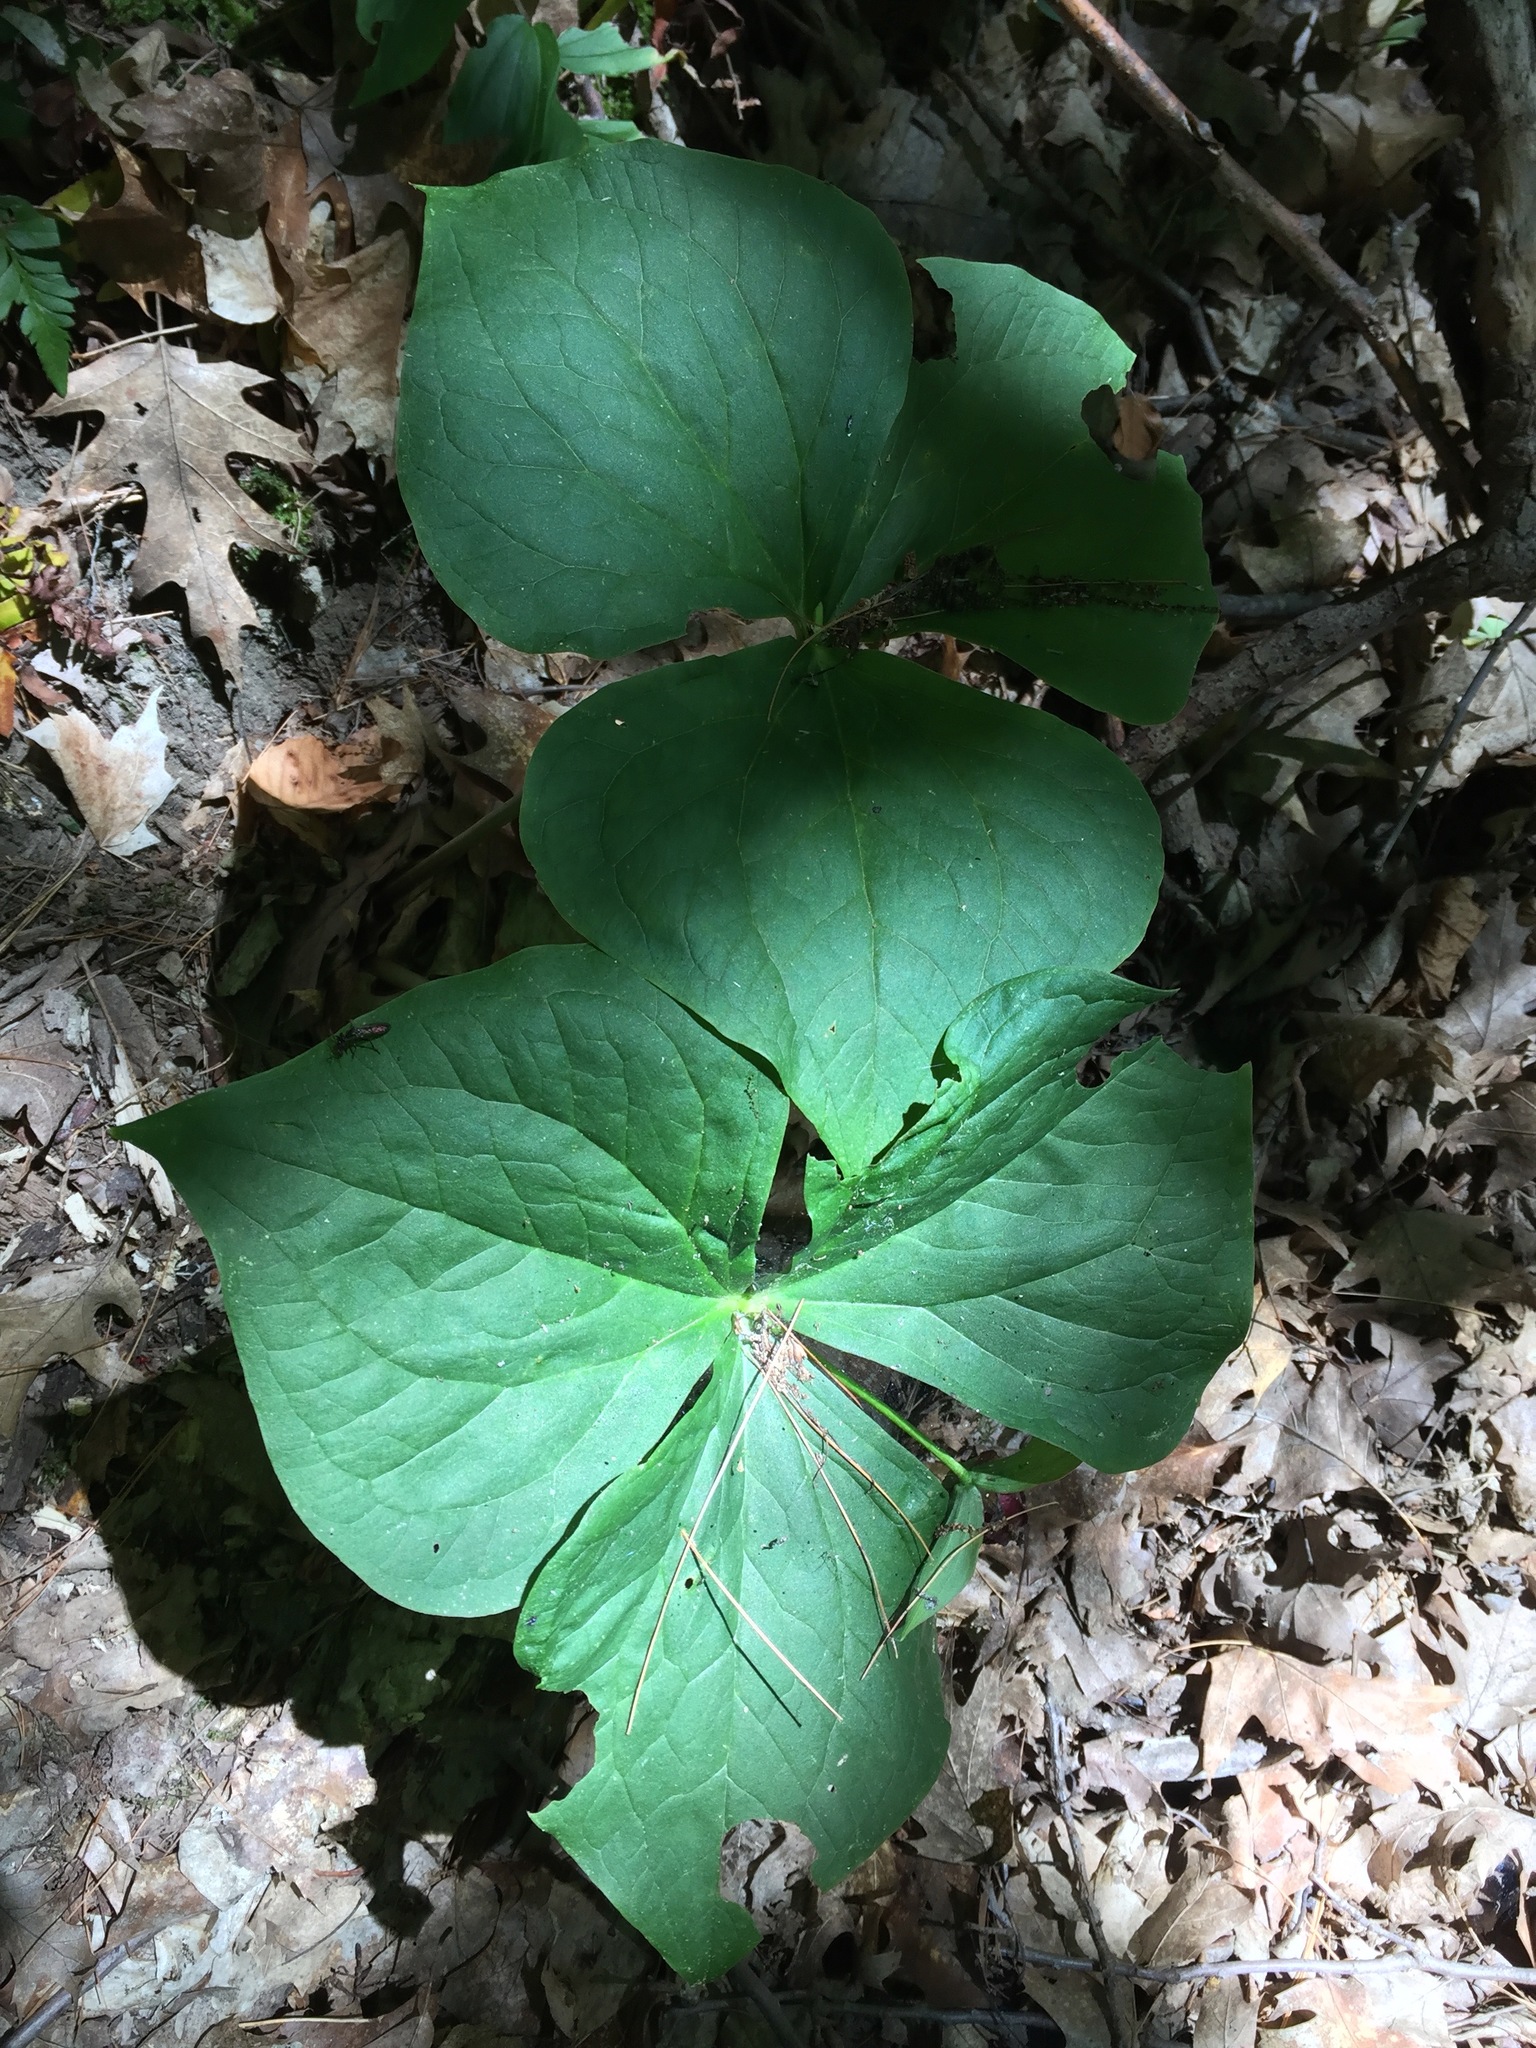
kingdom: Plantae
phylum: Tracheophyta
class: Liliopsida
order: Liliales
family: Melanthiaceae
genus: Trillium
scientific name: Trillium erectum
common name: Purple trillium
